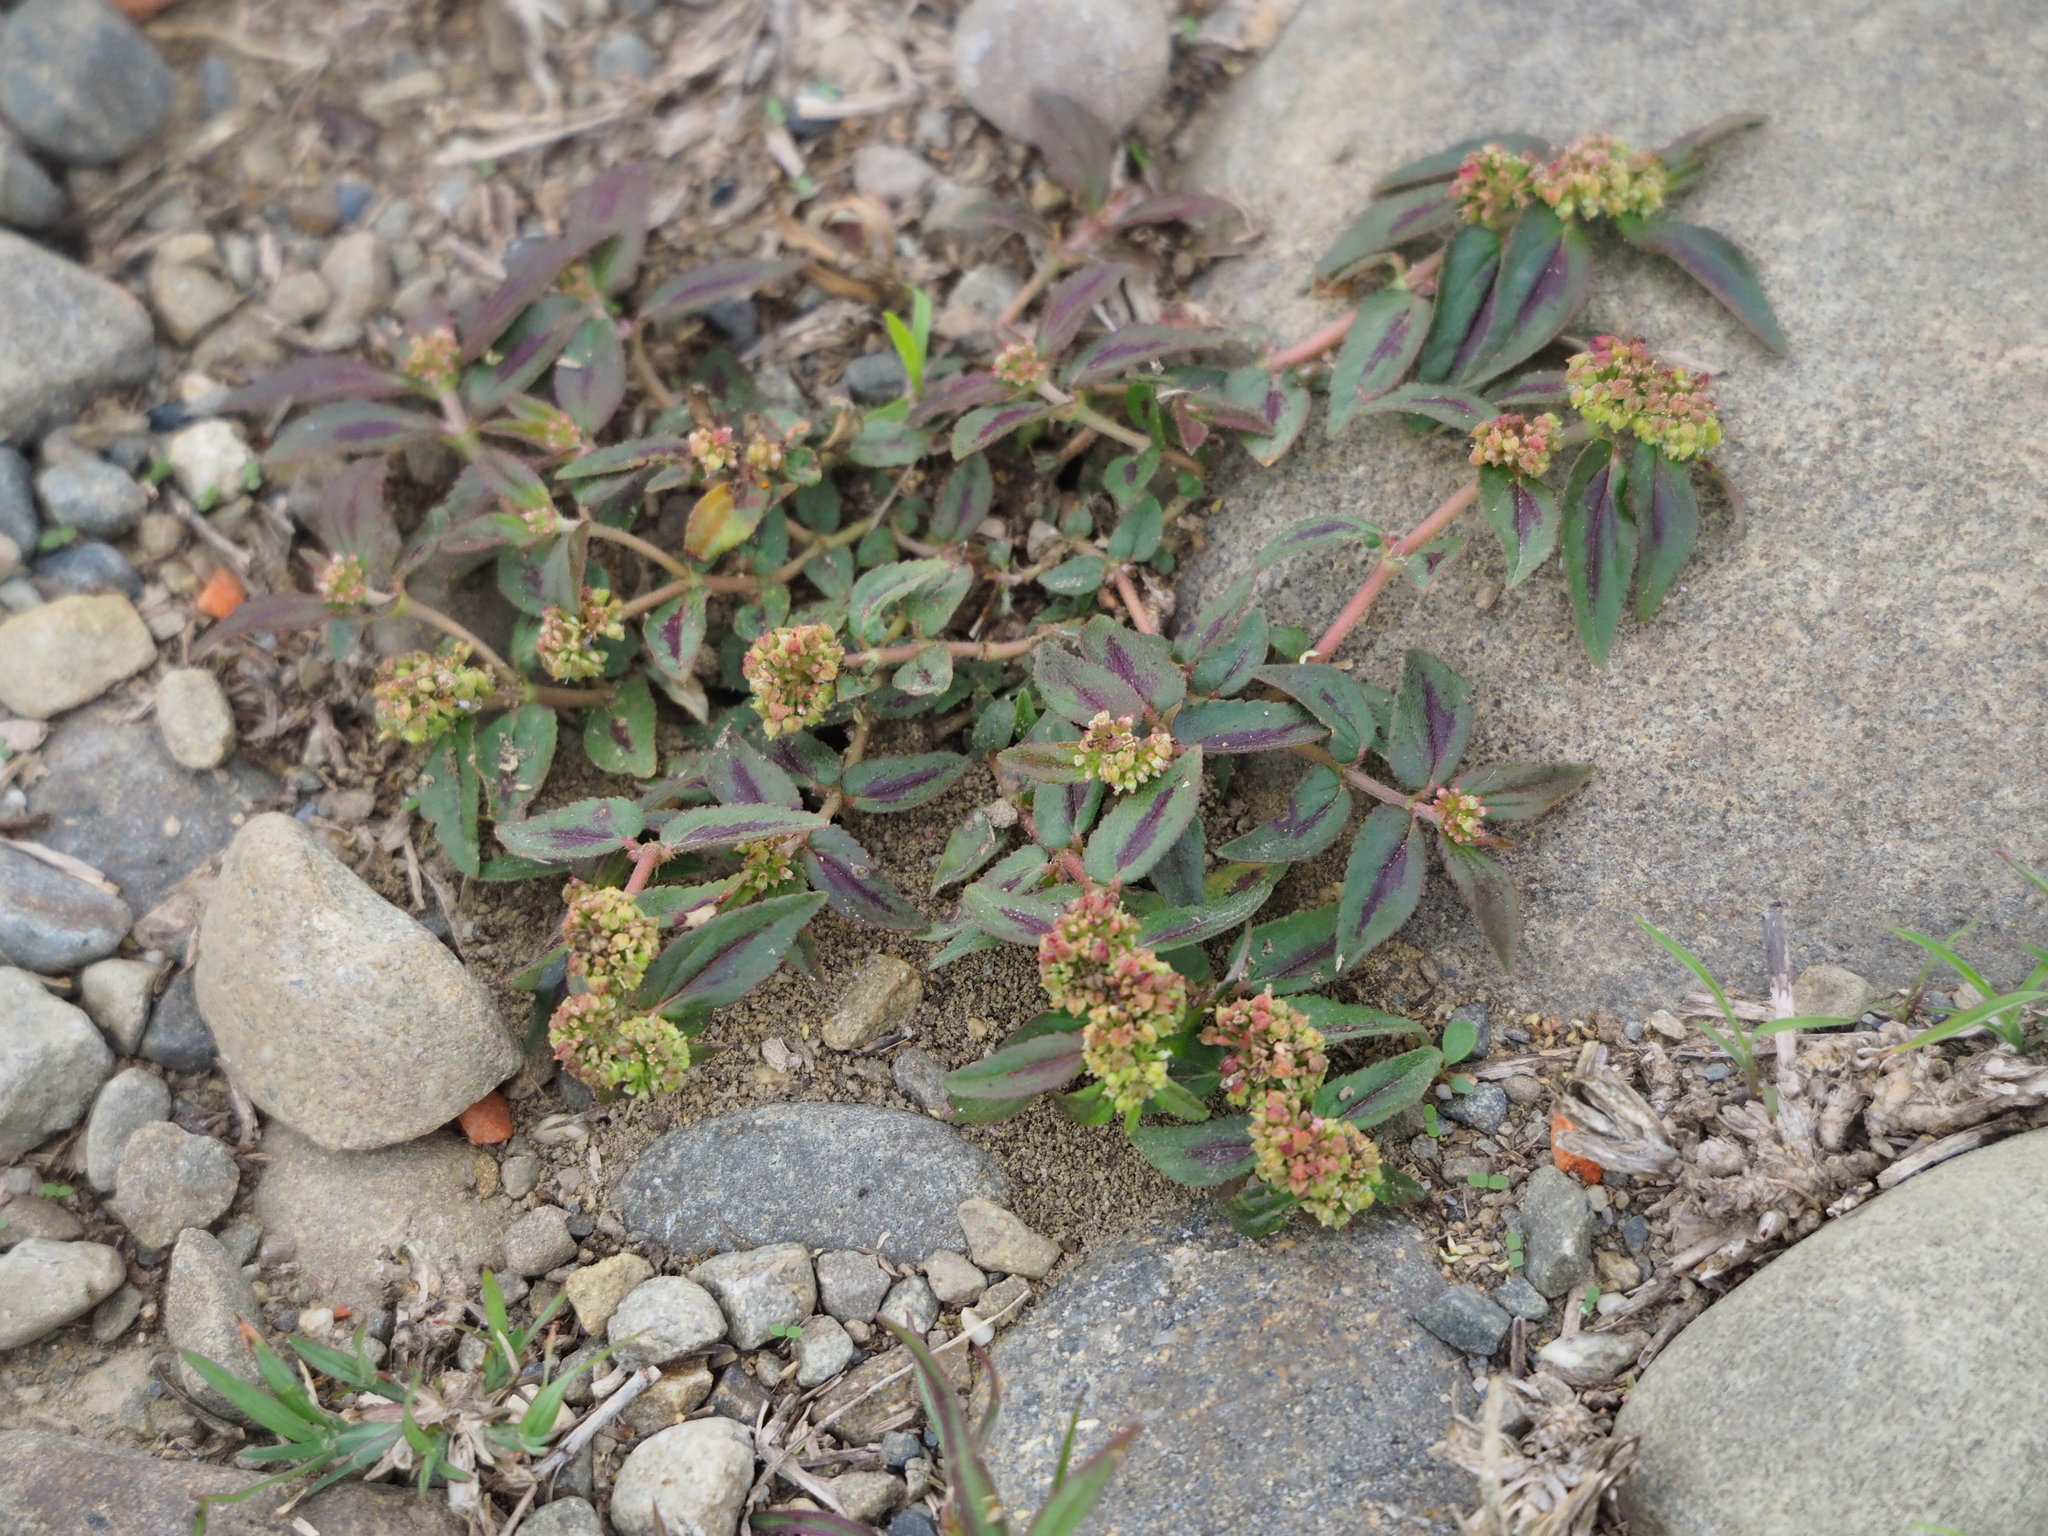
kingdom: Plantae
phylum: Tracheophyta
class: Magnoliopsida
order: Malpighiales
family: Euphorbiaceae
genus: Euphorbia
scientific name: Euphorbia hirta
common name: Pillpod sandmat
